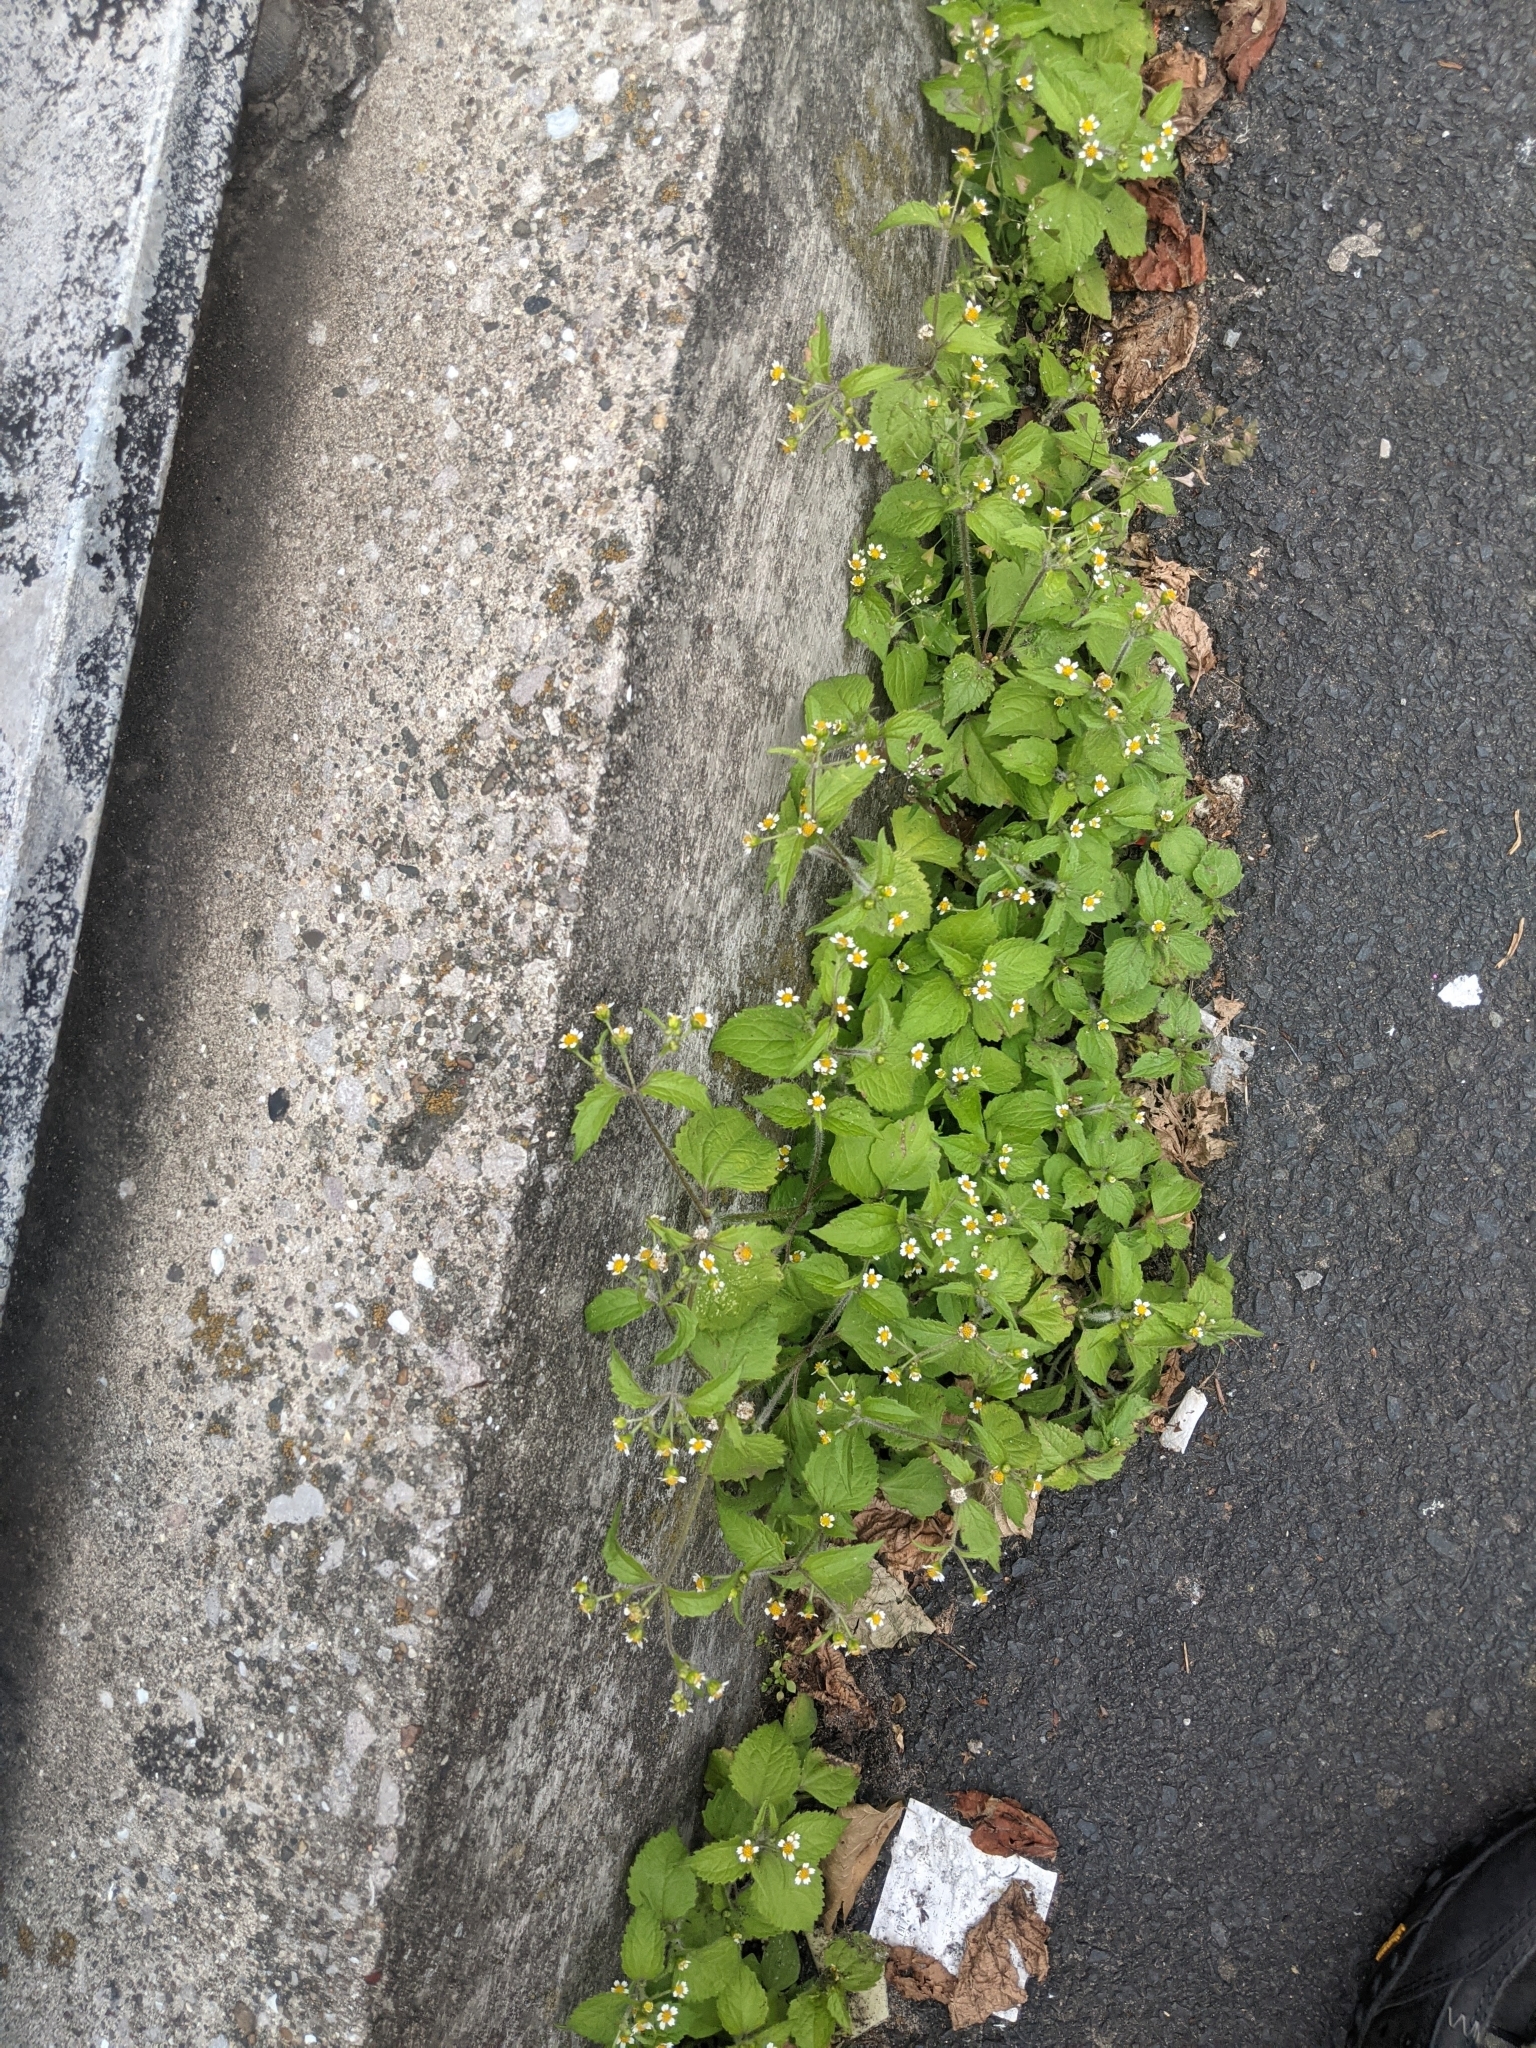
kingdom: Plantae
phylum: Tracheophyta
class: Magnoliopsida
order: Asterales
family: Asteraceae
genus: Galinsoga
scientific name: Galinsoga quadriradiata
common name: Shaggy soldier
